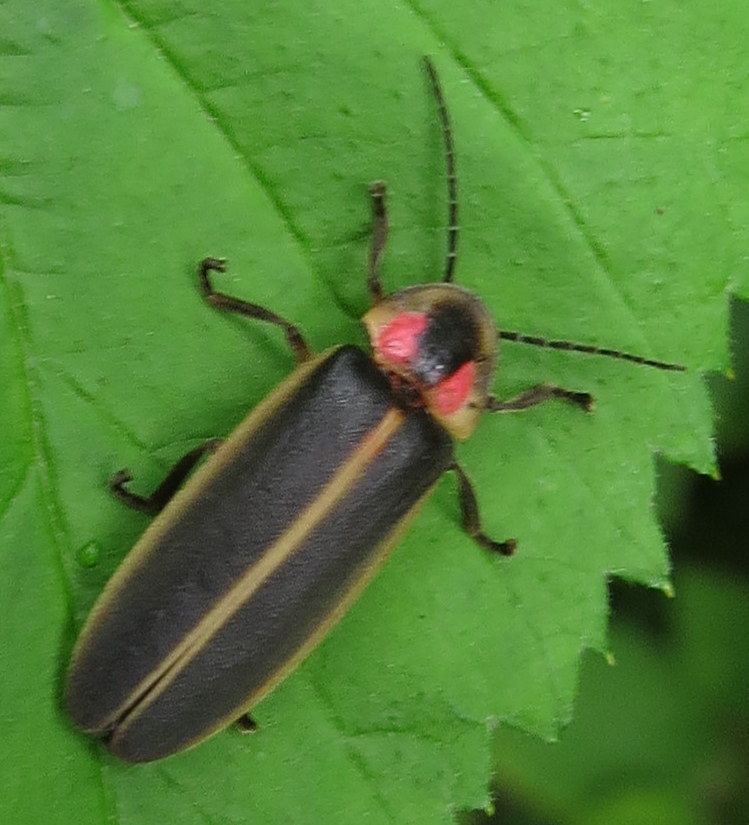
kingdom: Animalia
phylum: Arthropoda
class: Insecta
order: Coleoptera
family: Lampyridae
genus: Photinus
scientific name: Photinus pyralis
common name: Big dipper firefly
